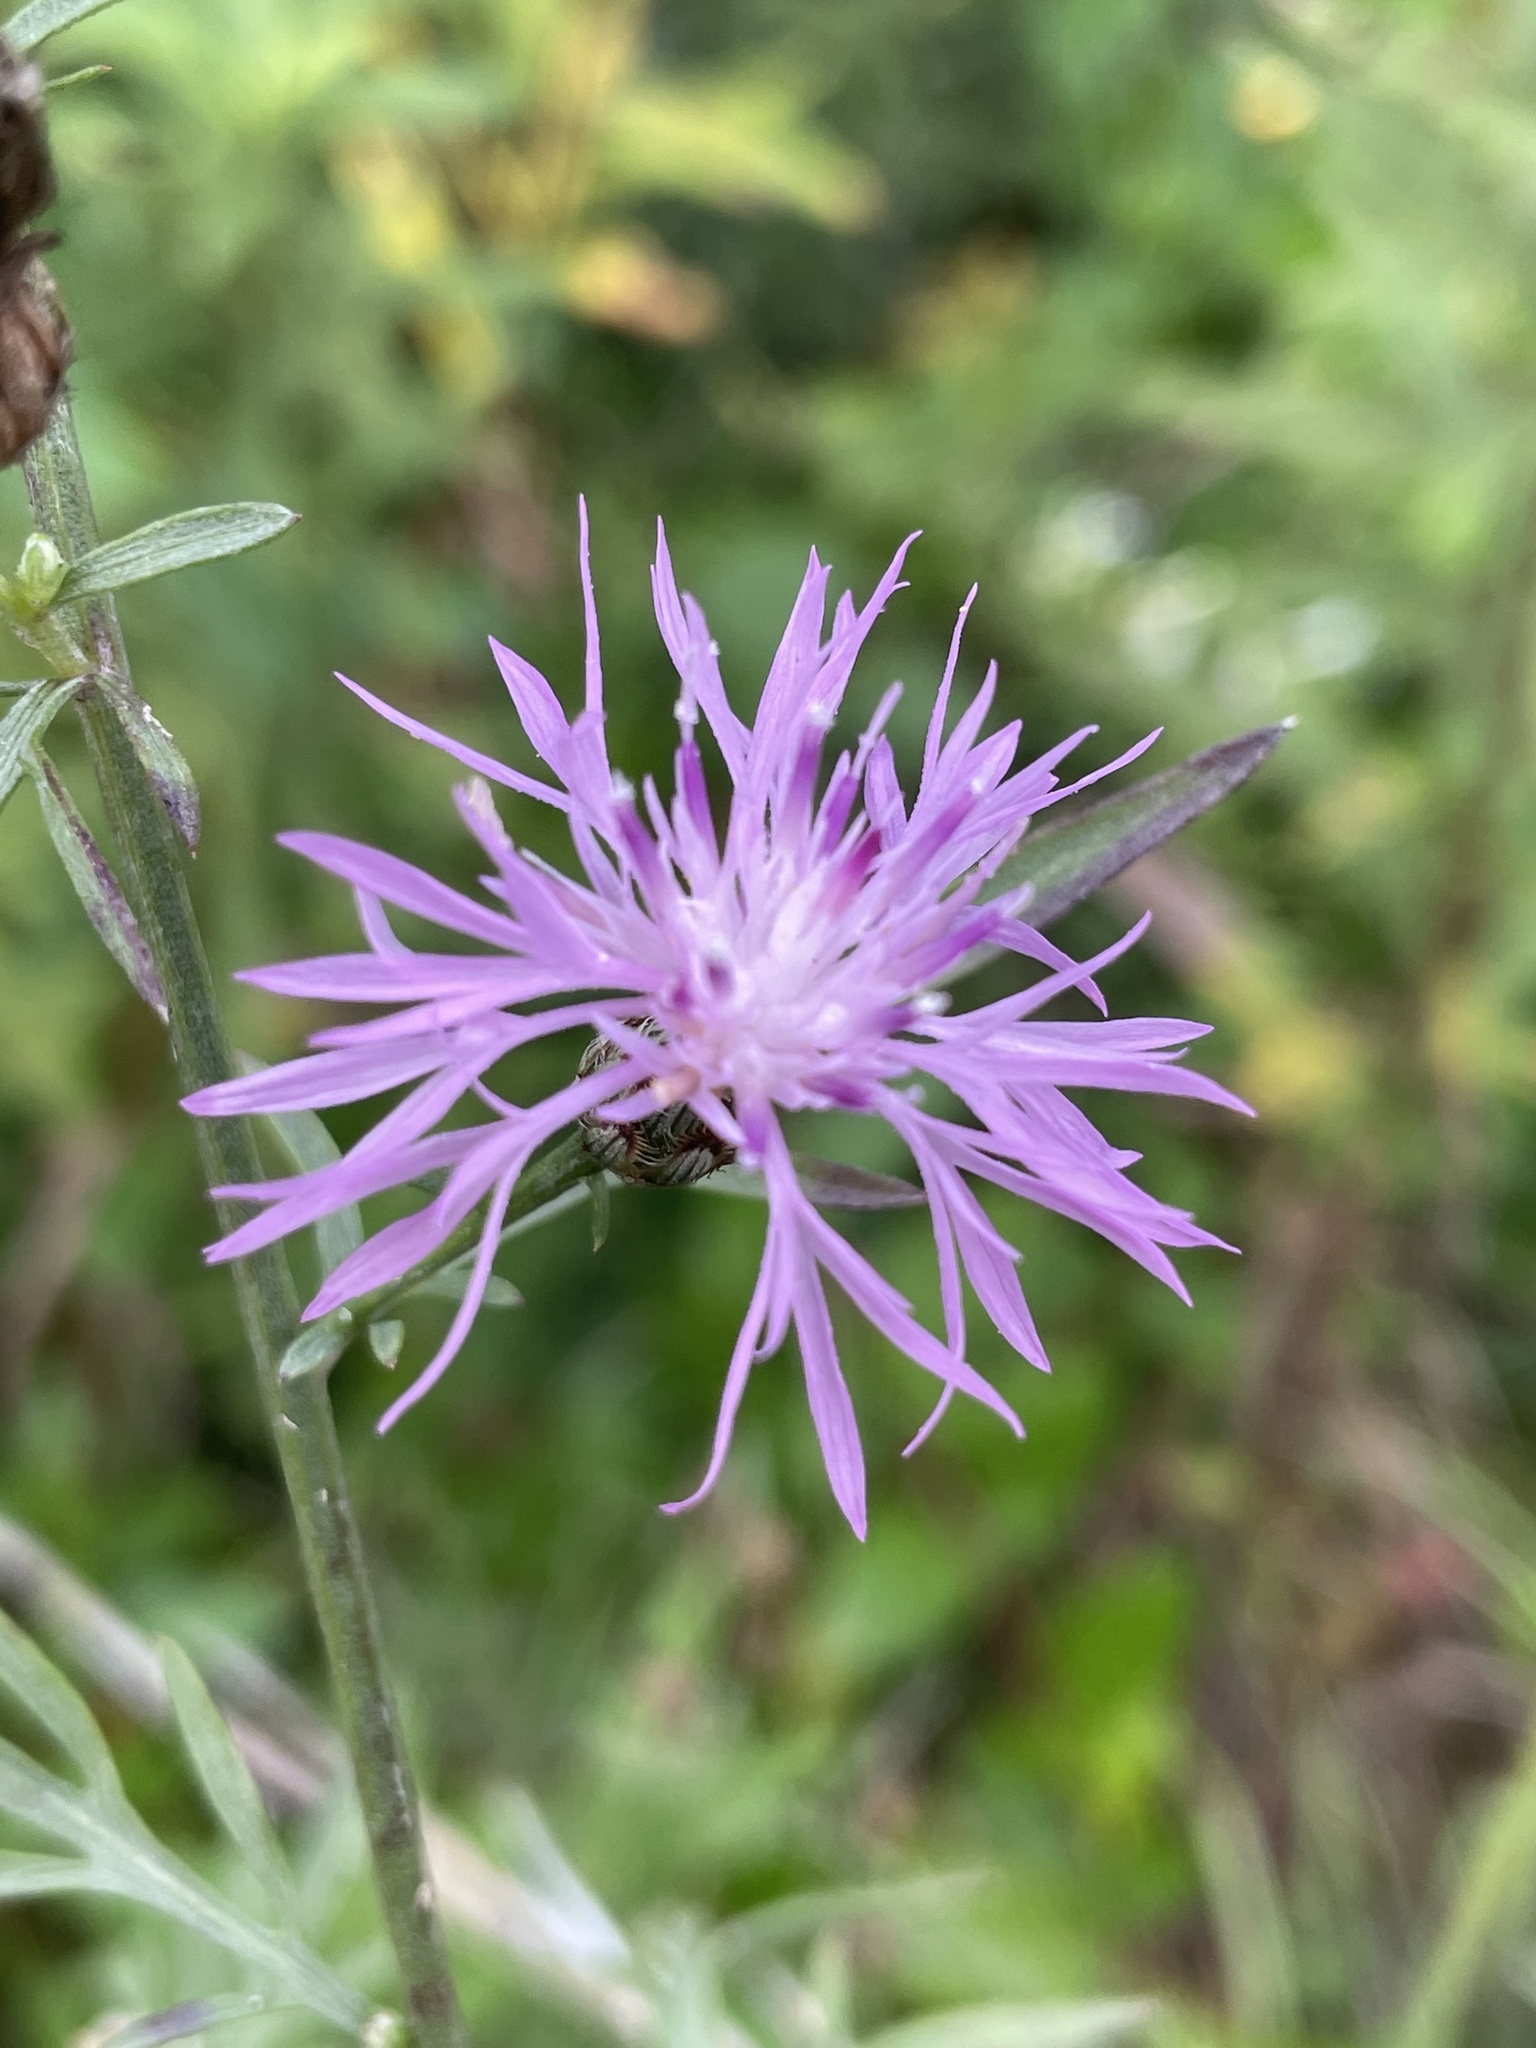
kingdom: Plantae
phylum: Tracheophyta
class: Magnoliopsida
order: Asterales
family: Asteraceae
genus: Centaurea
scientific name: Centaurea stoebe
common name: Spotted knapweed
